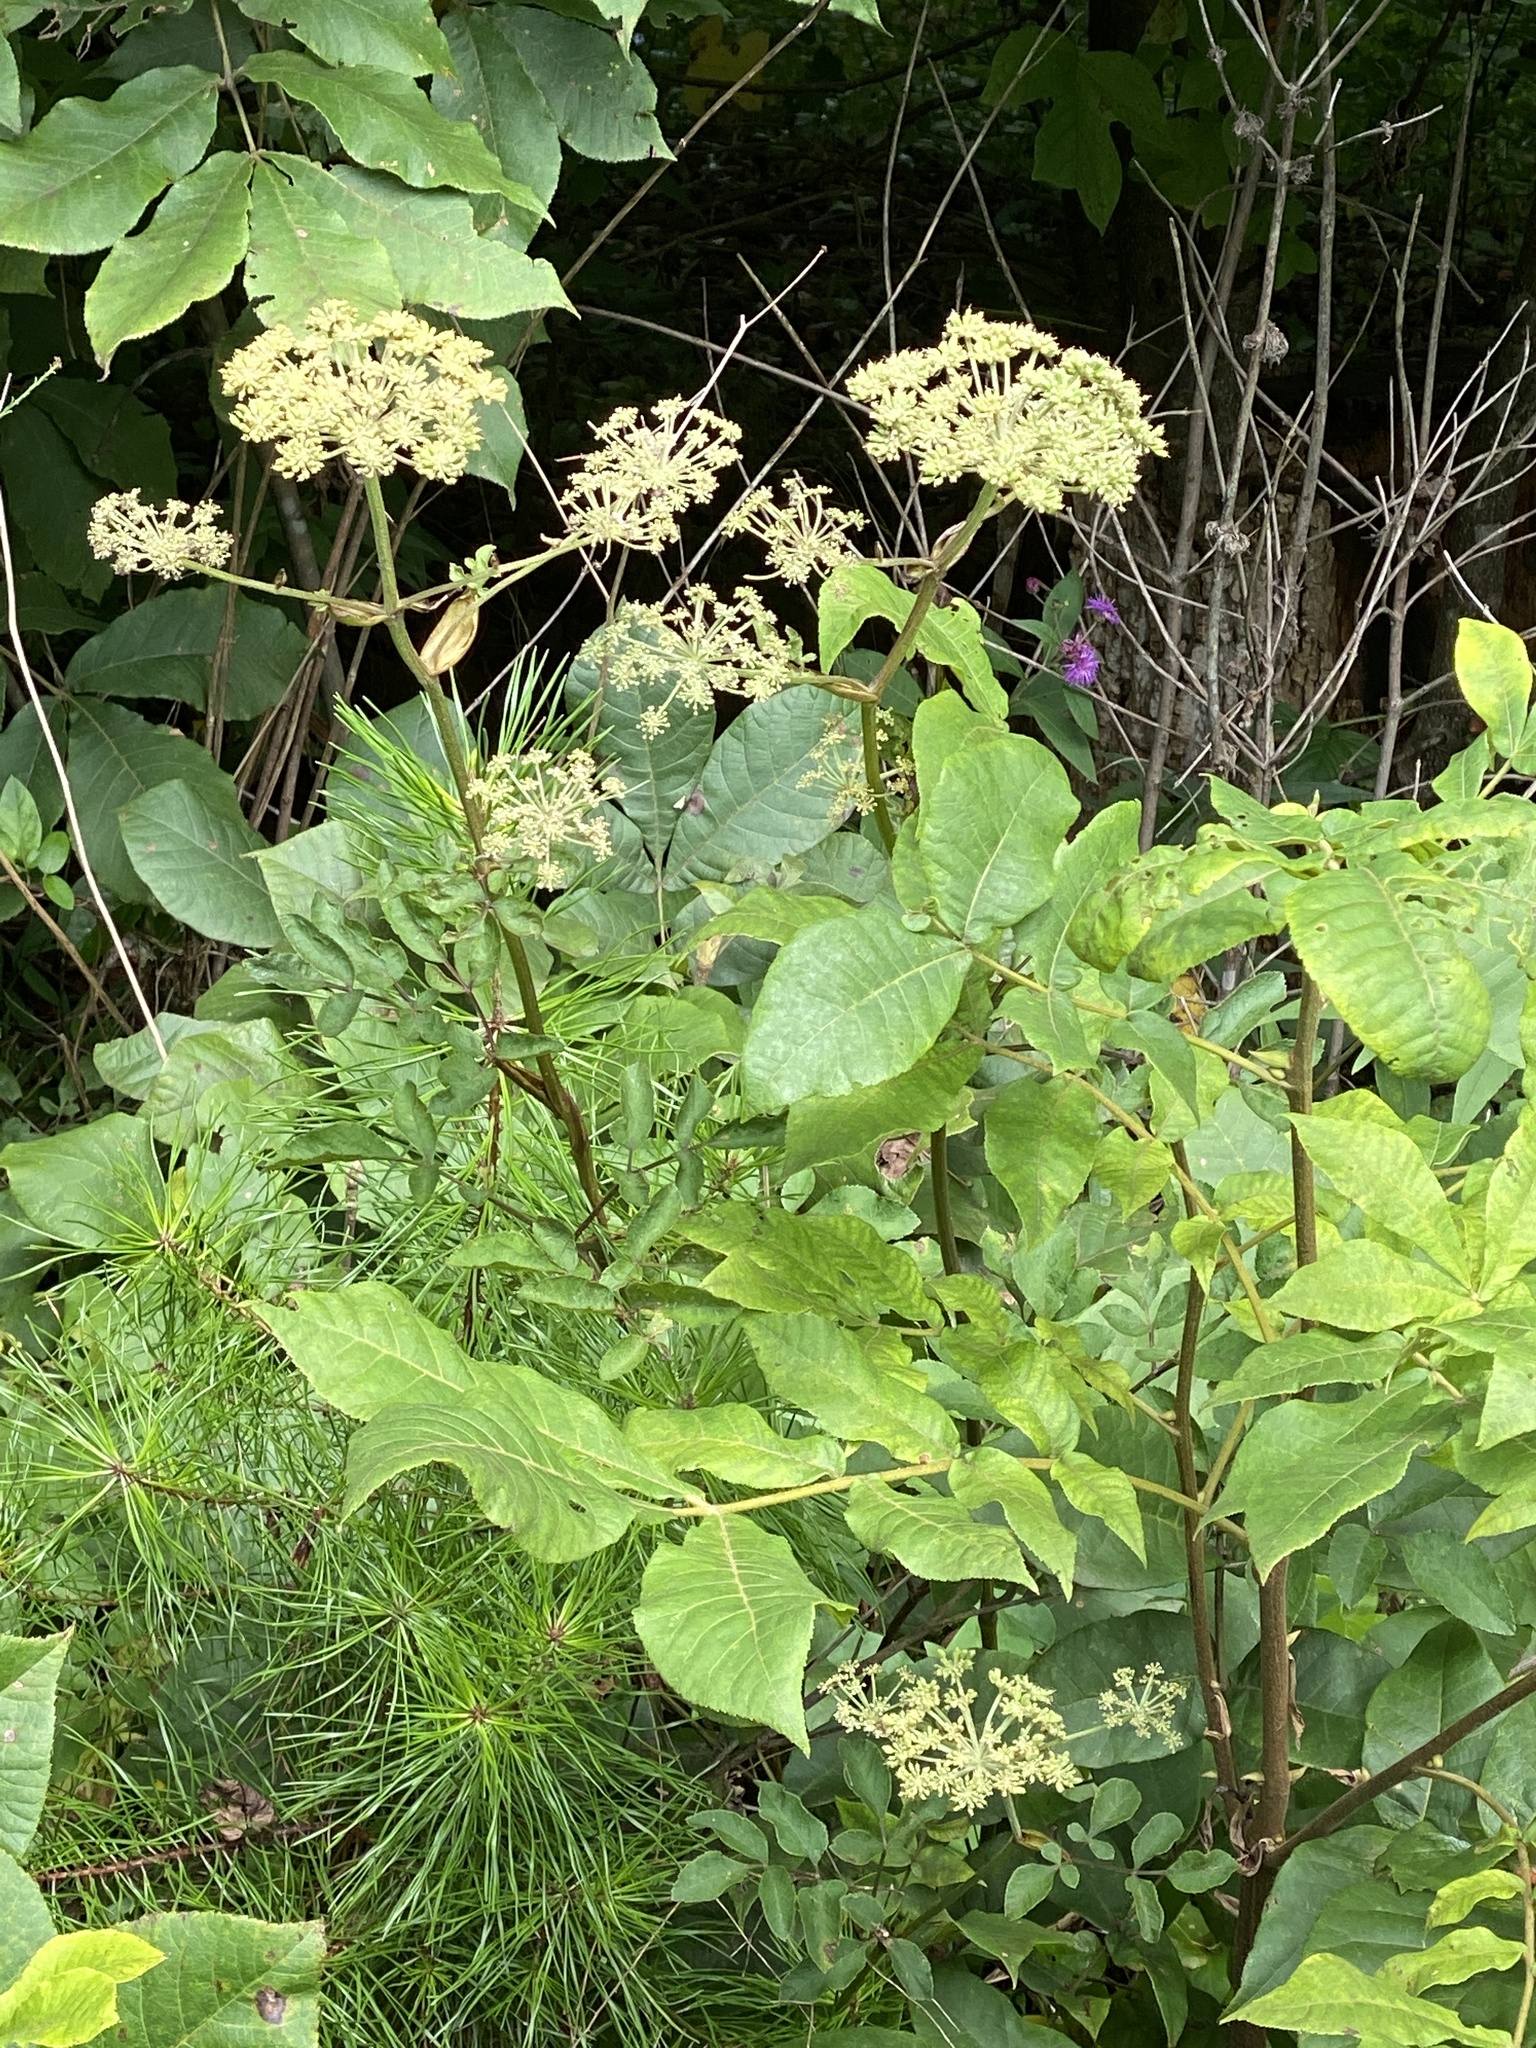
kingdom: Plantae
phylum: Tracheophyta
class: Magnoliopsida
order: Apiales
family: Apiaceae
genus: Angelica
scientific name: Angelica venenosa
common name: Hairy angelica
